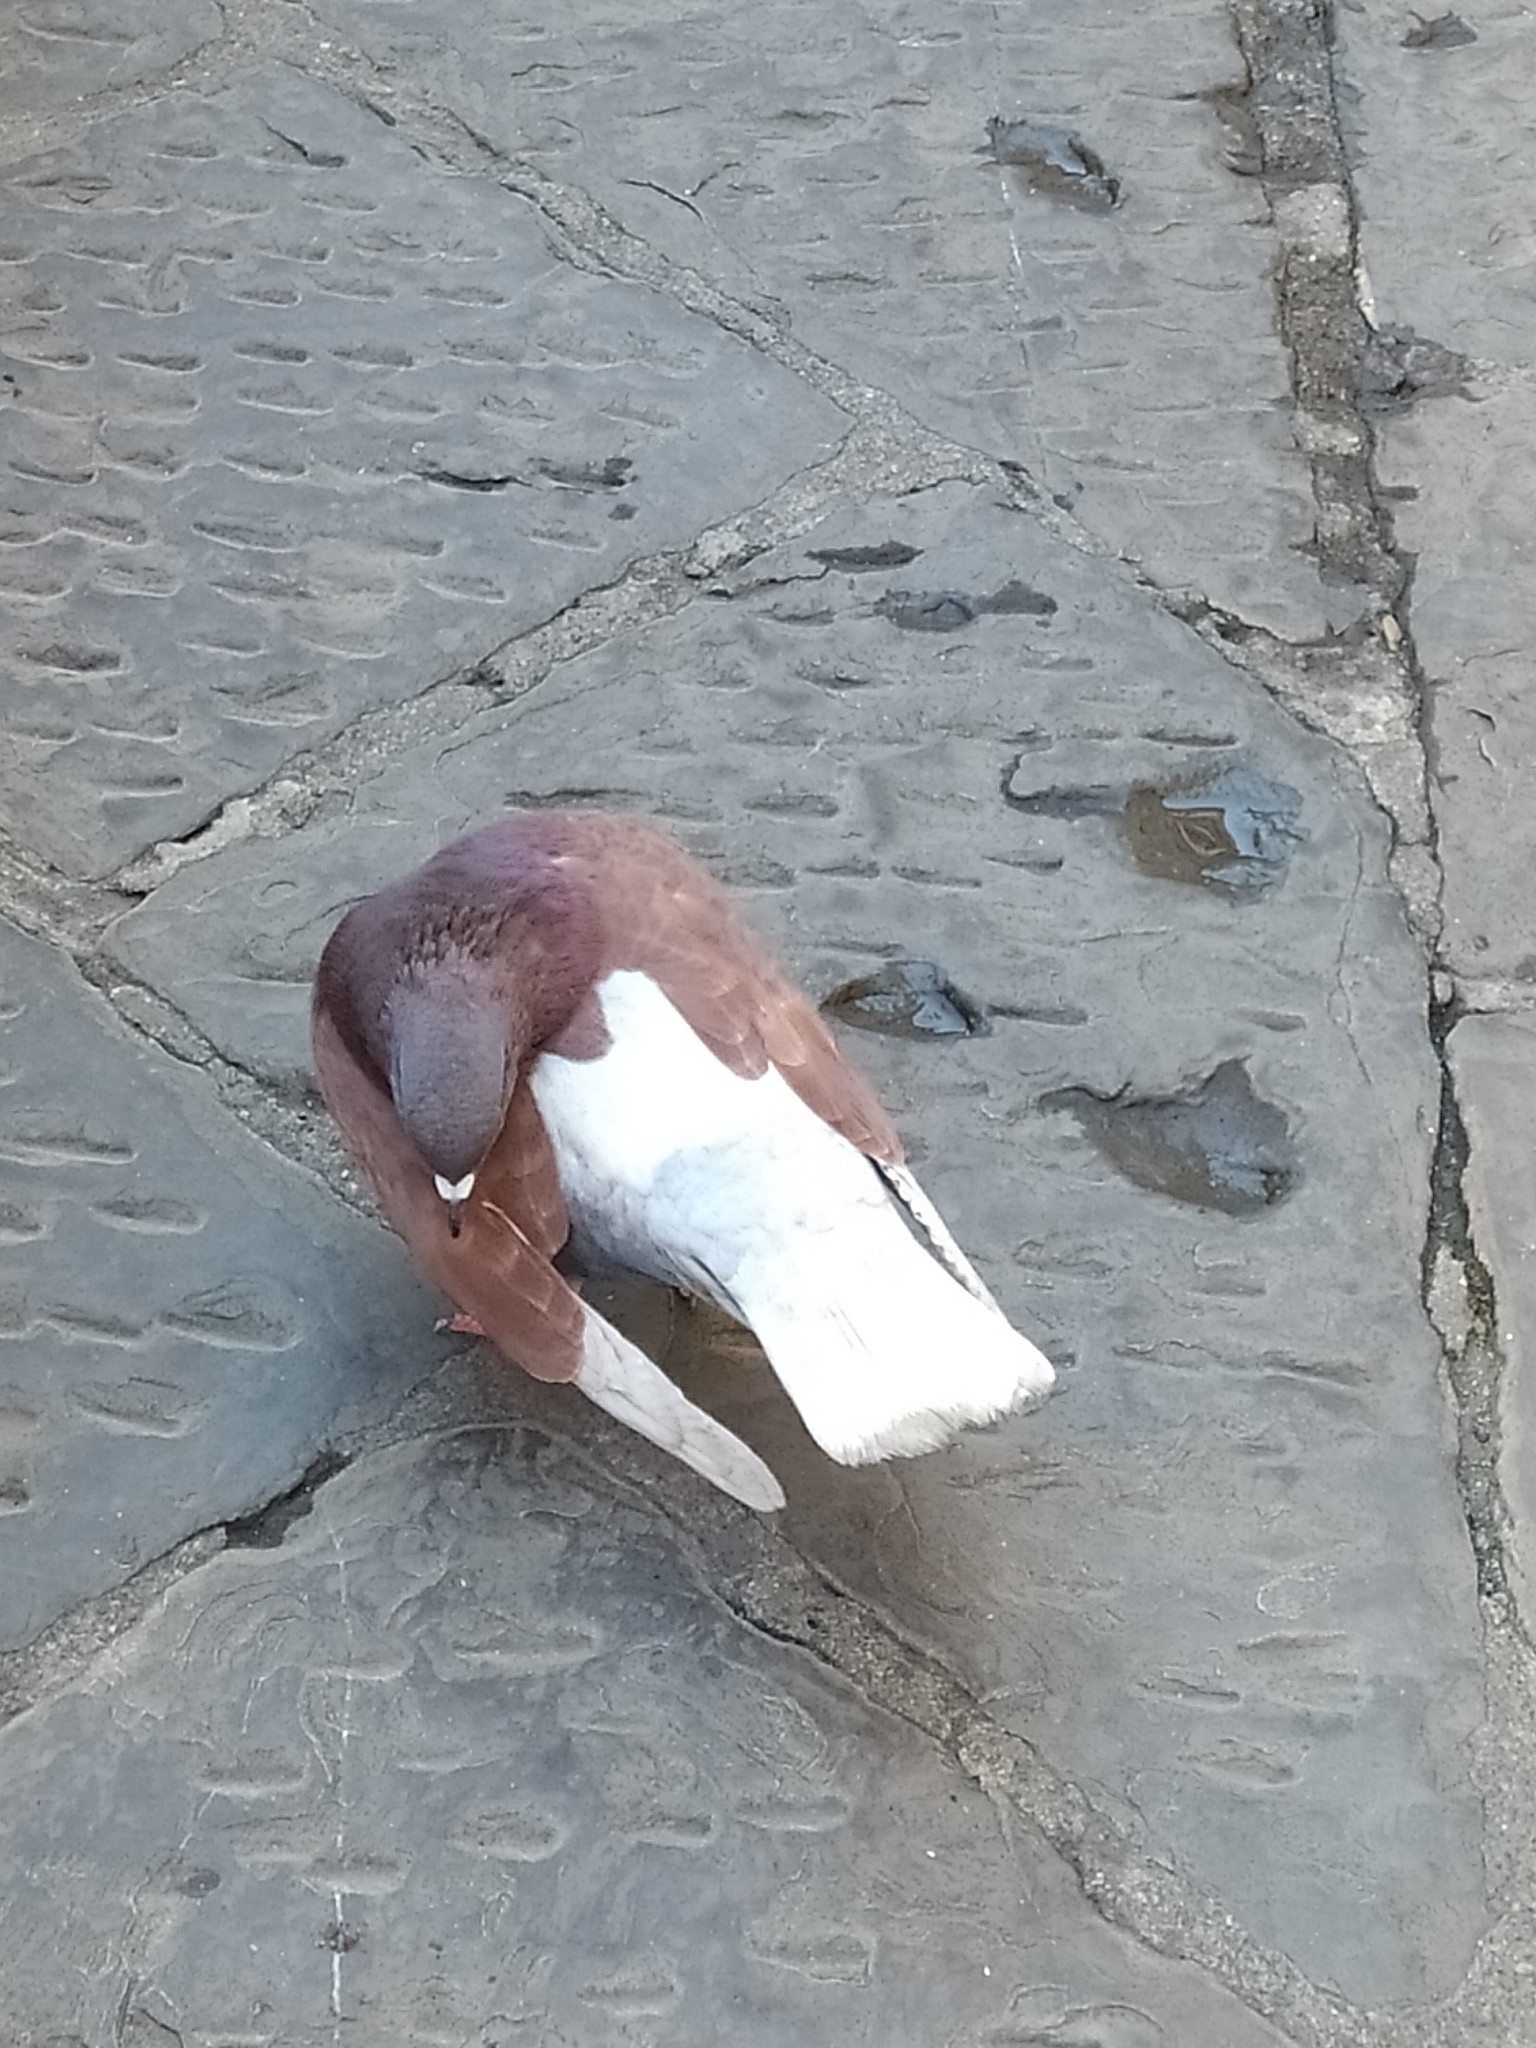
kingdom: Animalia
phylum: Chordata
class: Aves
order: Columbiformes
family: Columbidae
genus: Columba
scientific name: Columba livia
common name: Rock pigeon
